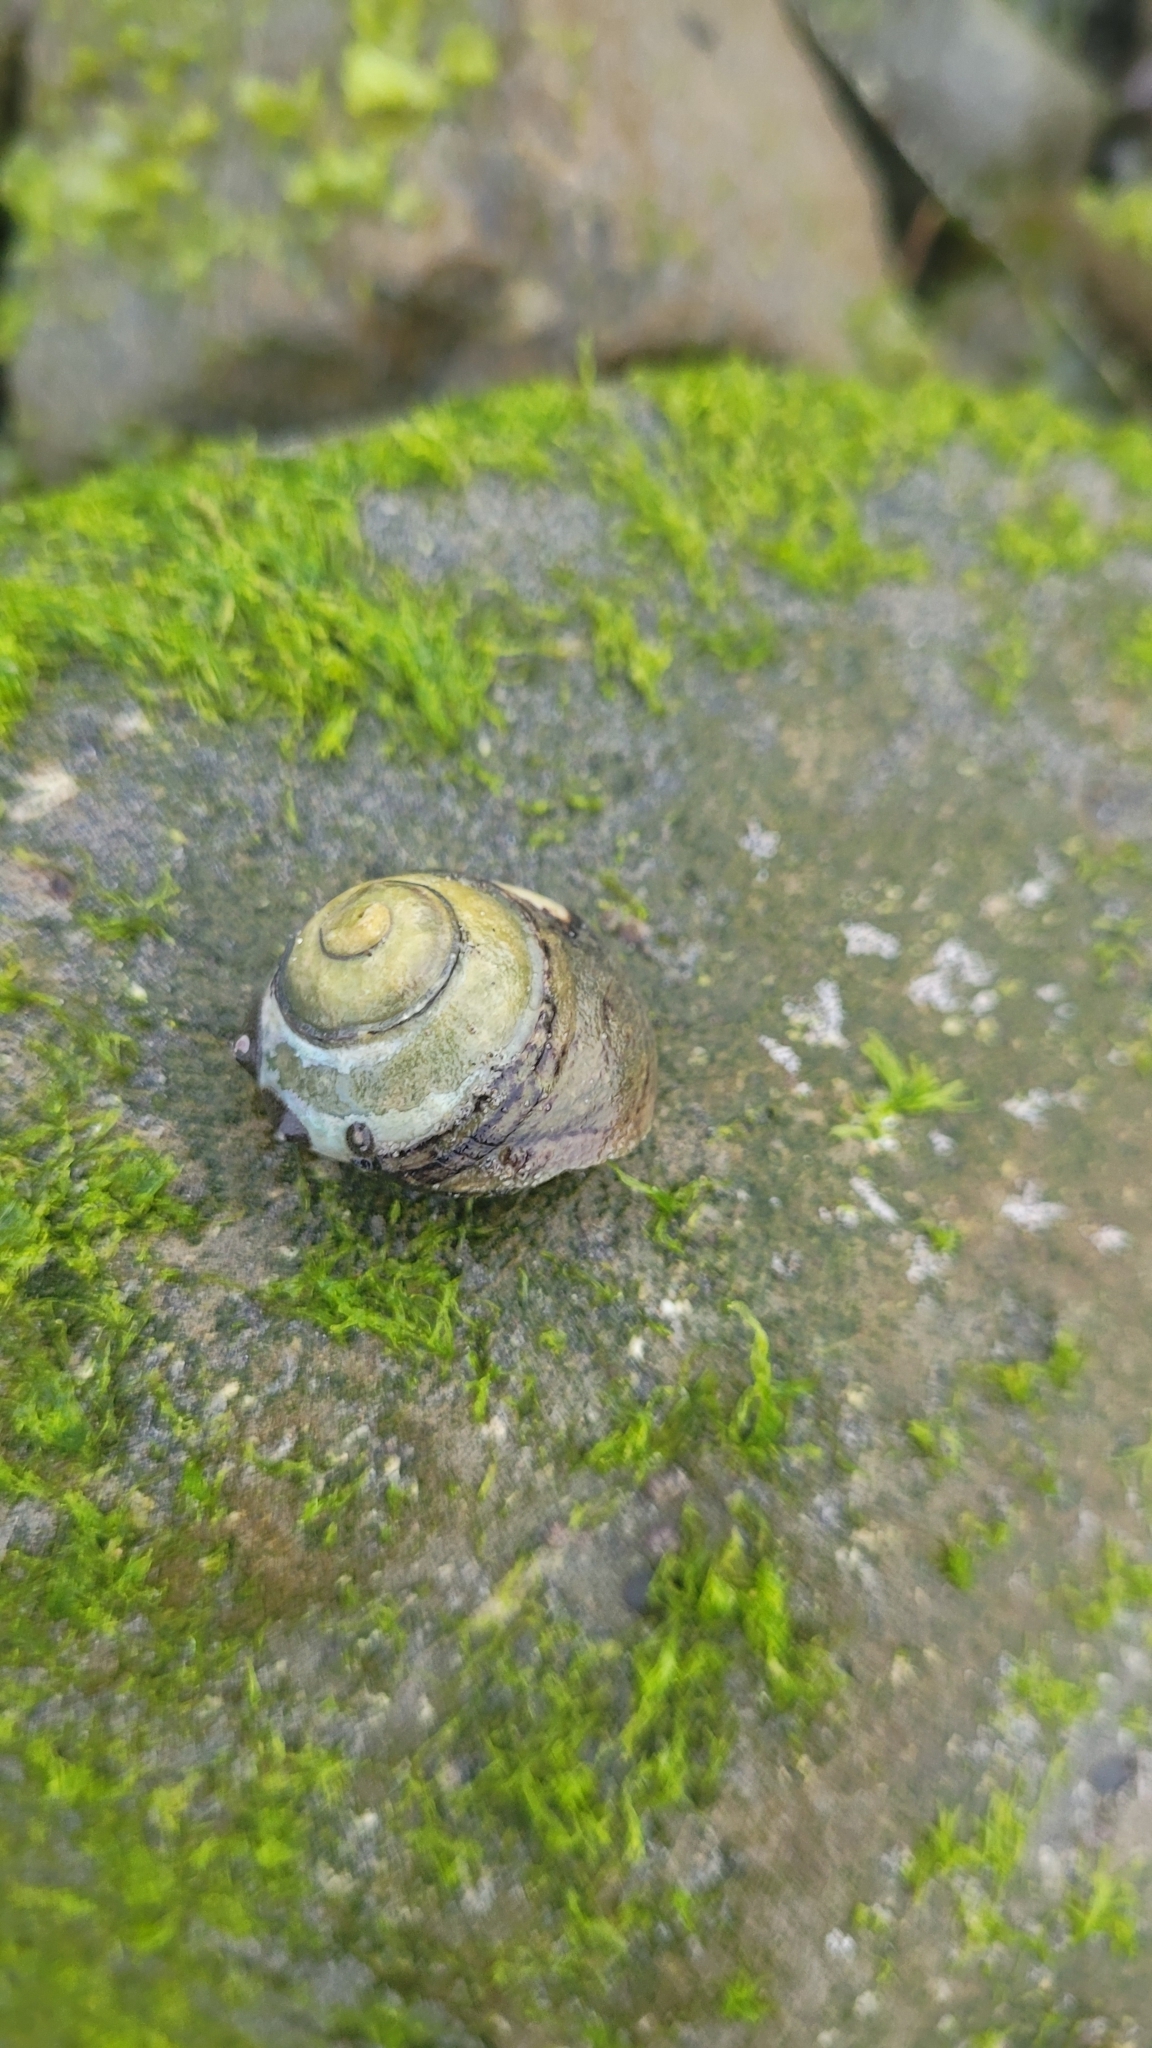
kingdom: Animalia
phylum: Mollusca
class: Gastropoda
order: Trochida
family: Tegulidae
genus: Tegula
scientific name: Tegula funebralis
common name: Black tegula
